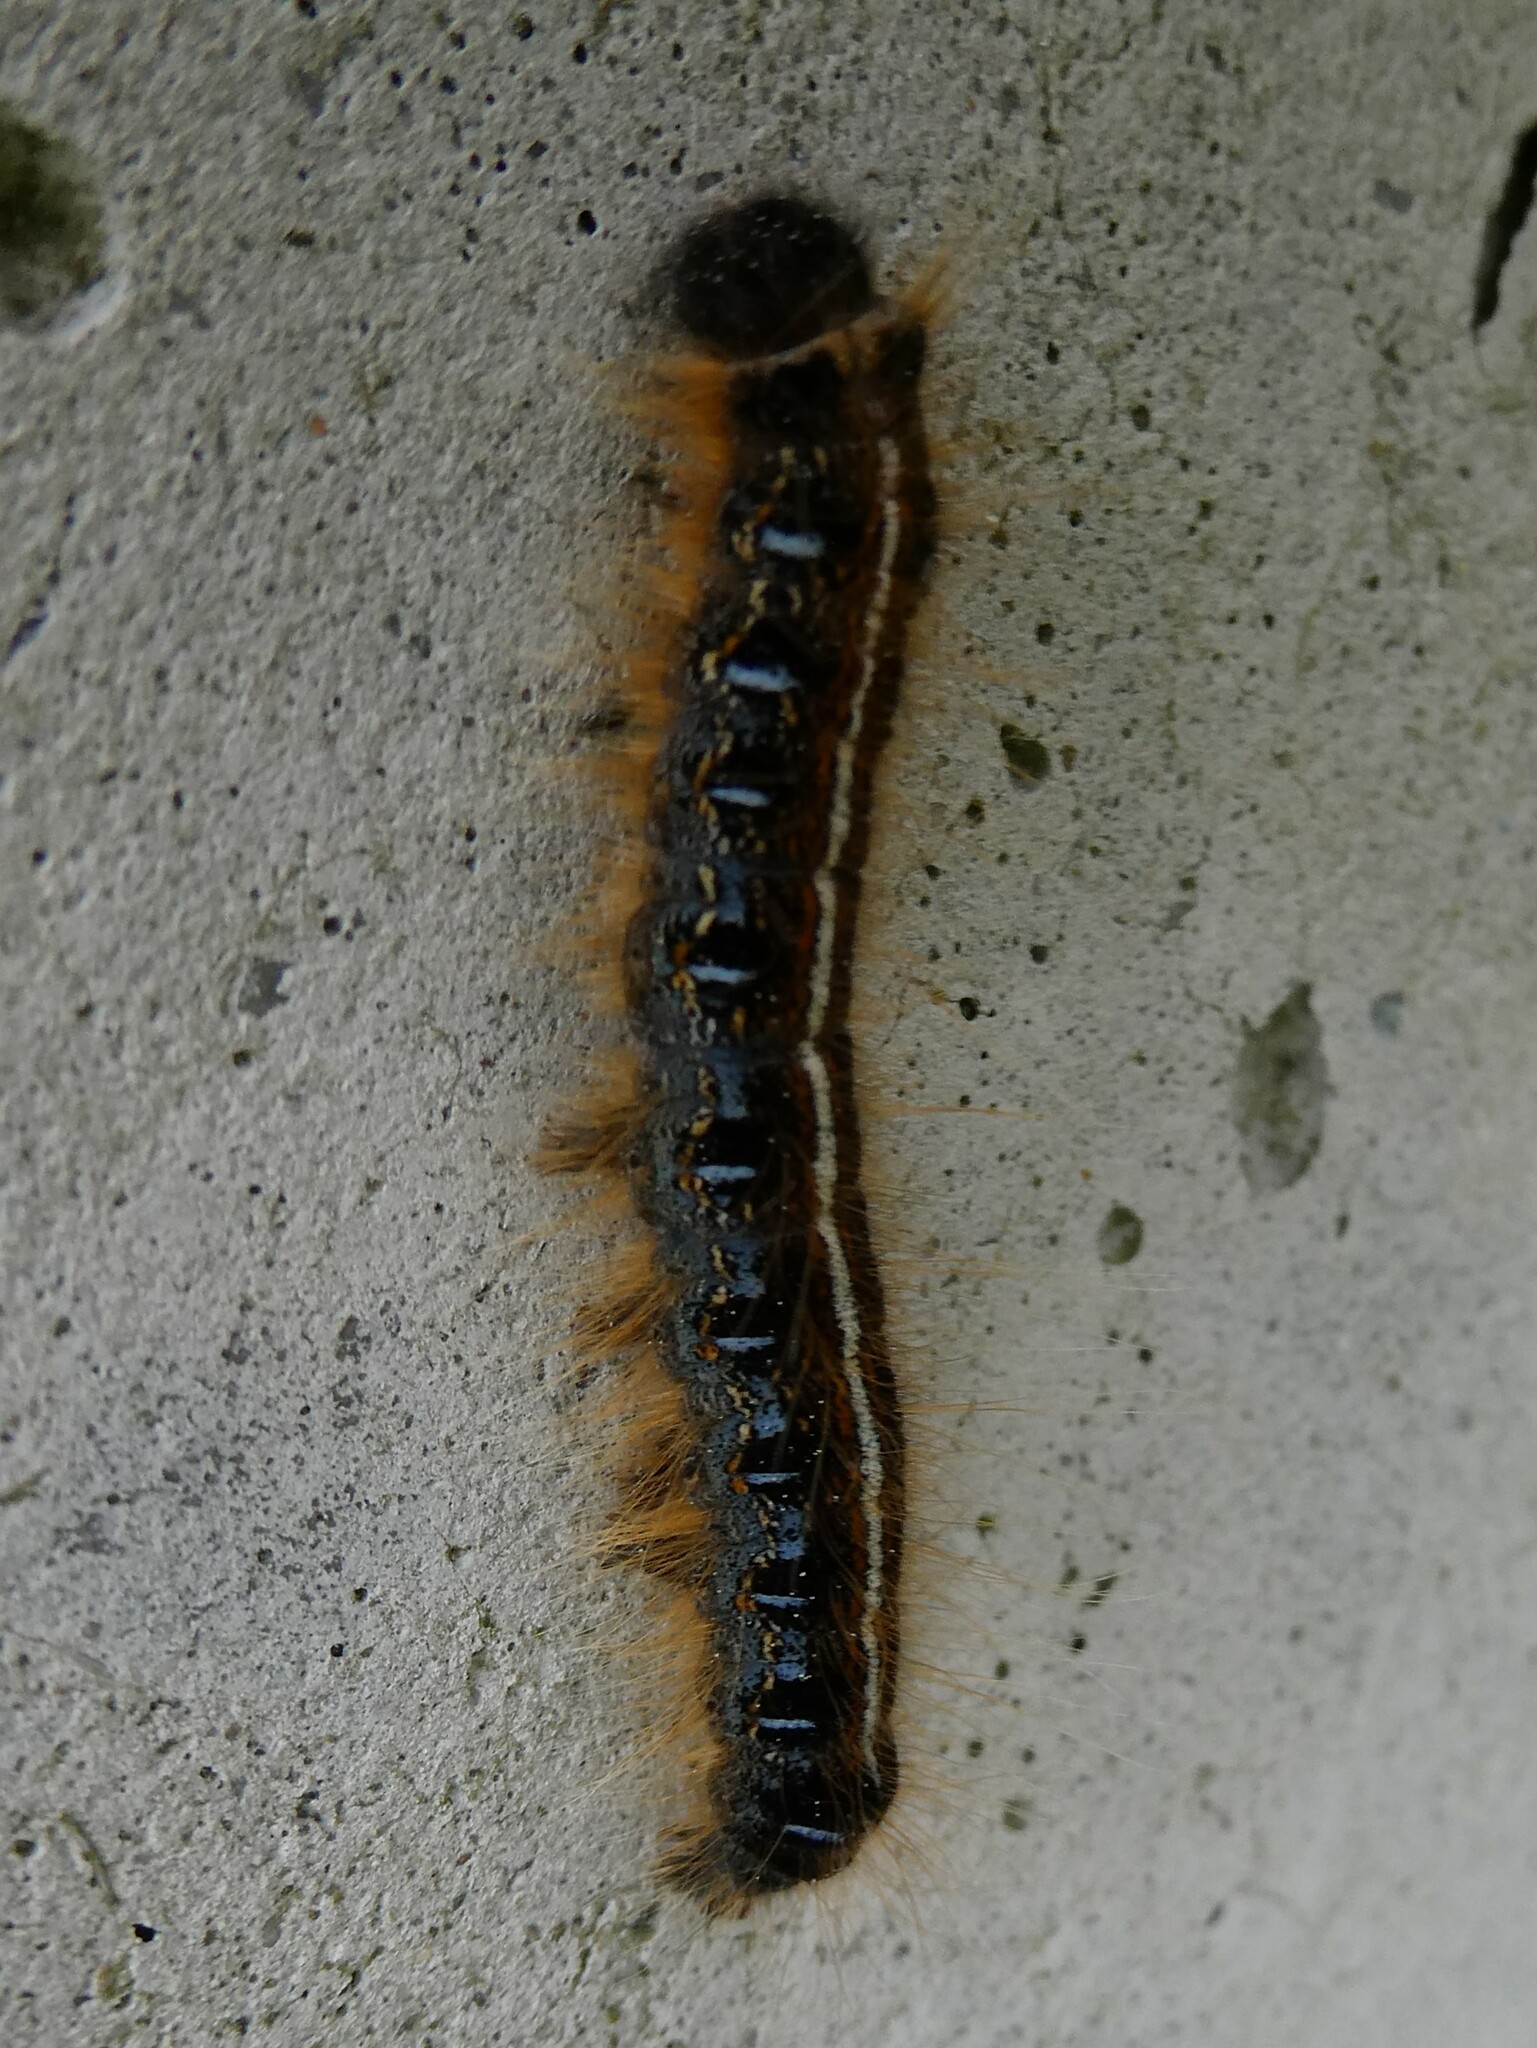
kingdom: Animalia
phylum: Arthropoda
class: Insecta
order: Lepidoptera
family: Lasiocampidae
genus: Malacosoma
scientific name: Malacosoma americana
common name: Eastern tent caterpillar moth
